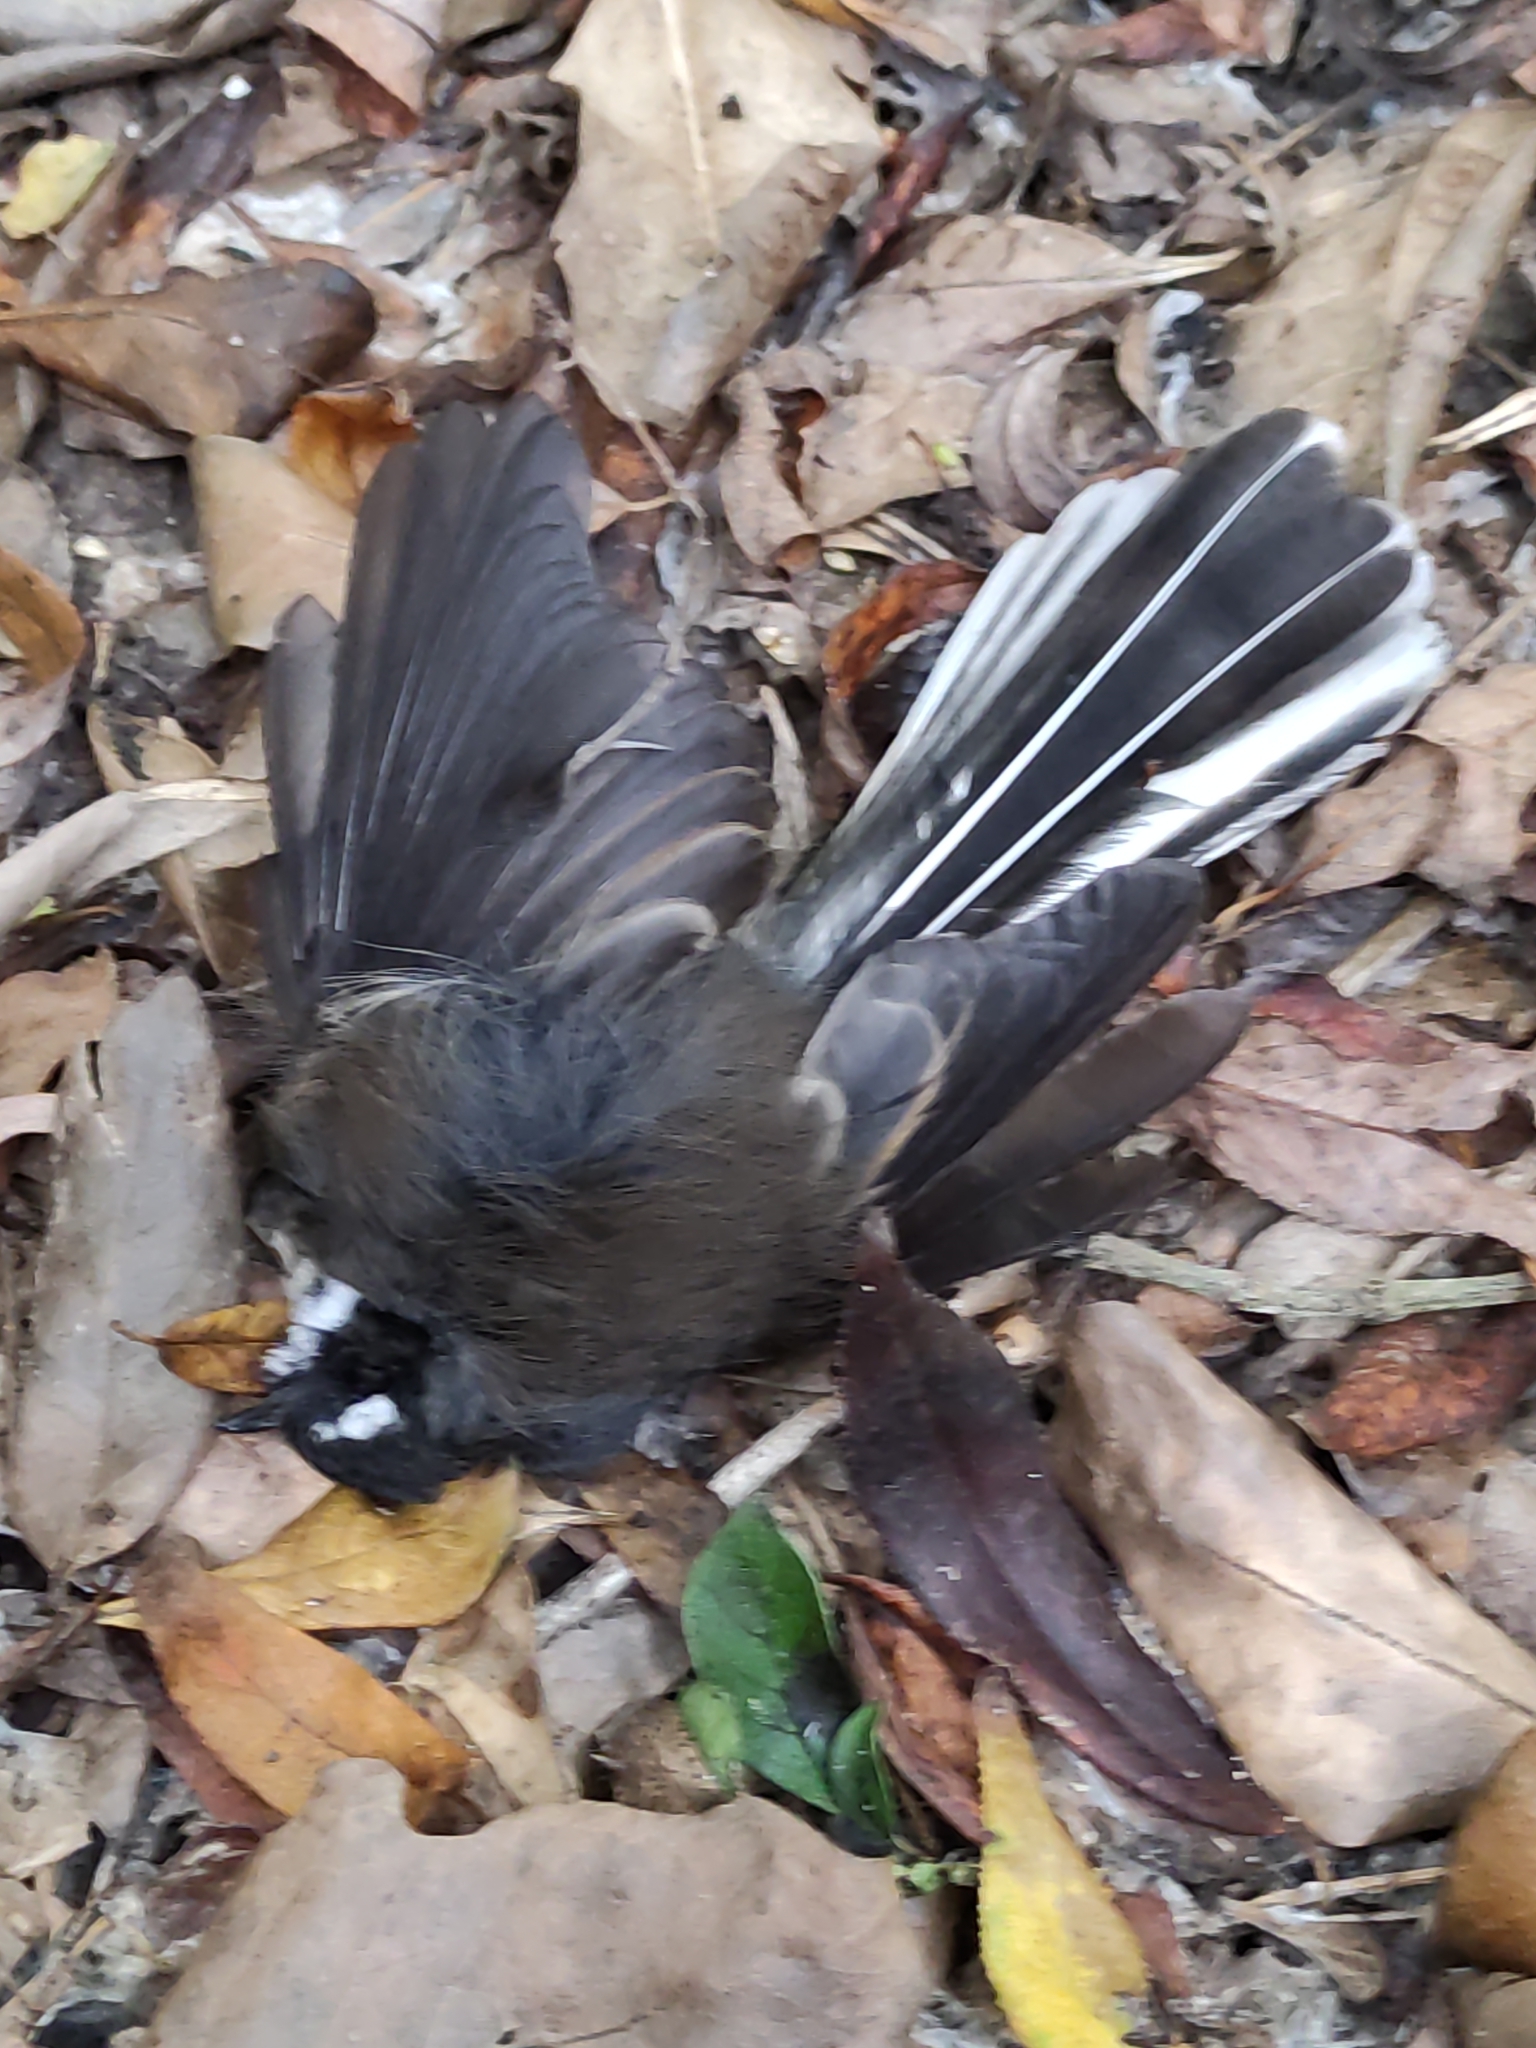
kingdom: Animalia
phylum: Chordata
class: Aves
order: Passeriformes
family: Rhipiduridae
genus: Rhipidura
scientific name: Rhipidura fuliginosa
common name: New zealand fantail
